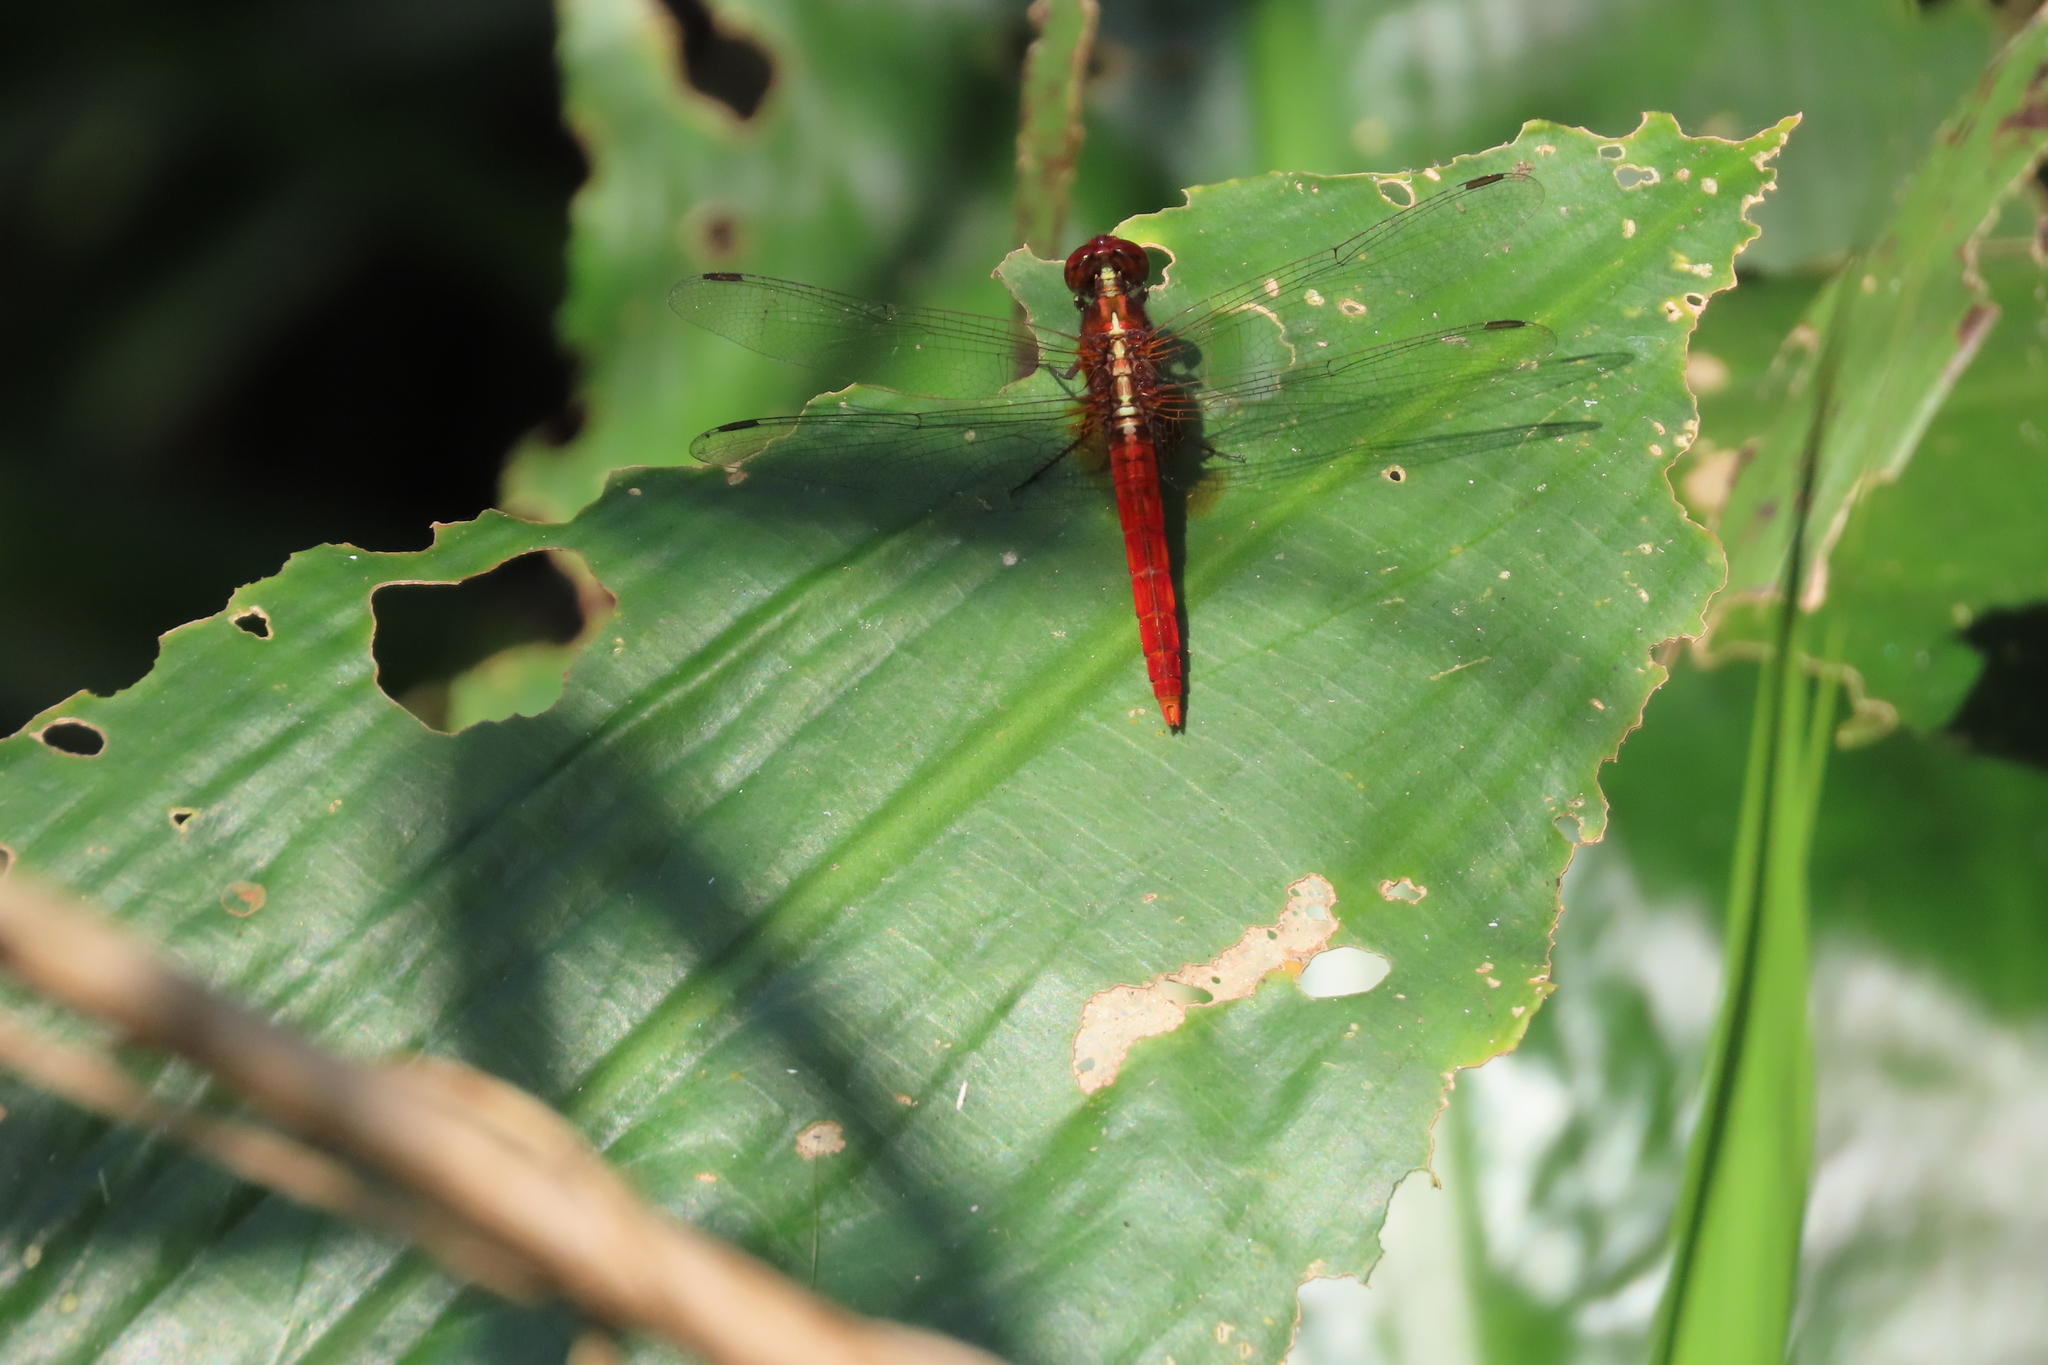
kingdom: Animalia
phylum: Arthropoda
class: Insecta
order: Odonata
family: Libellulidae
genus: Rhodothemis
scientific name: Rhodothemis rufa
